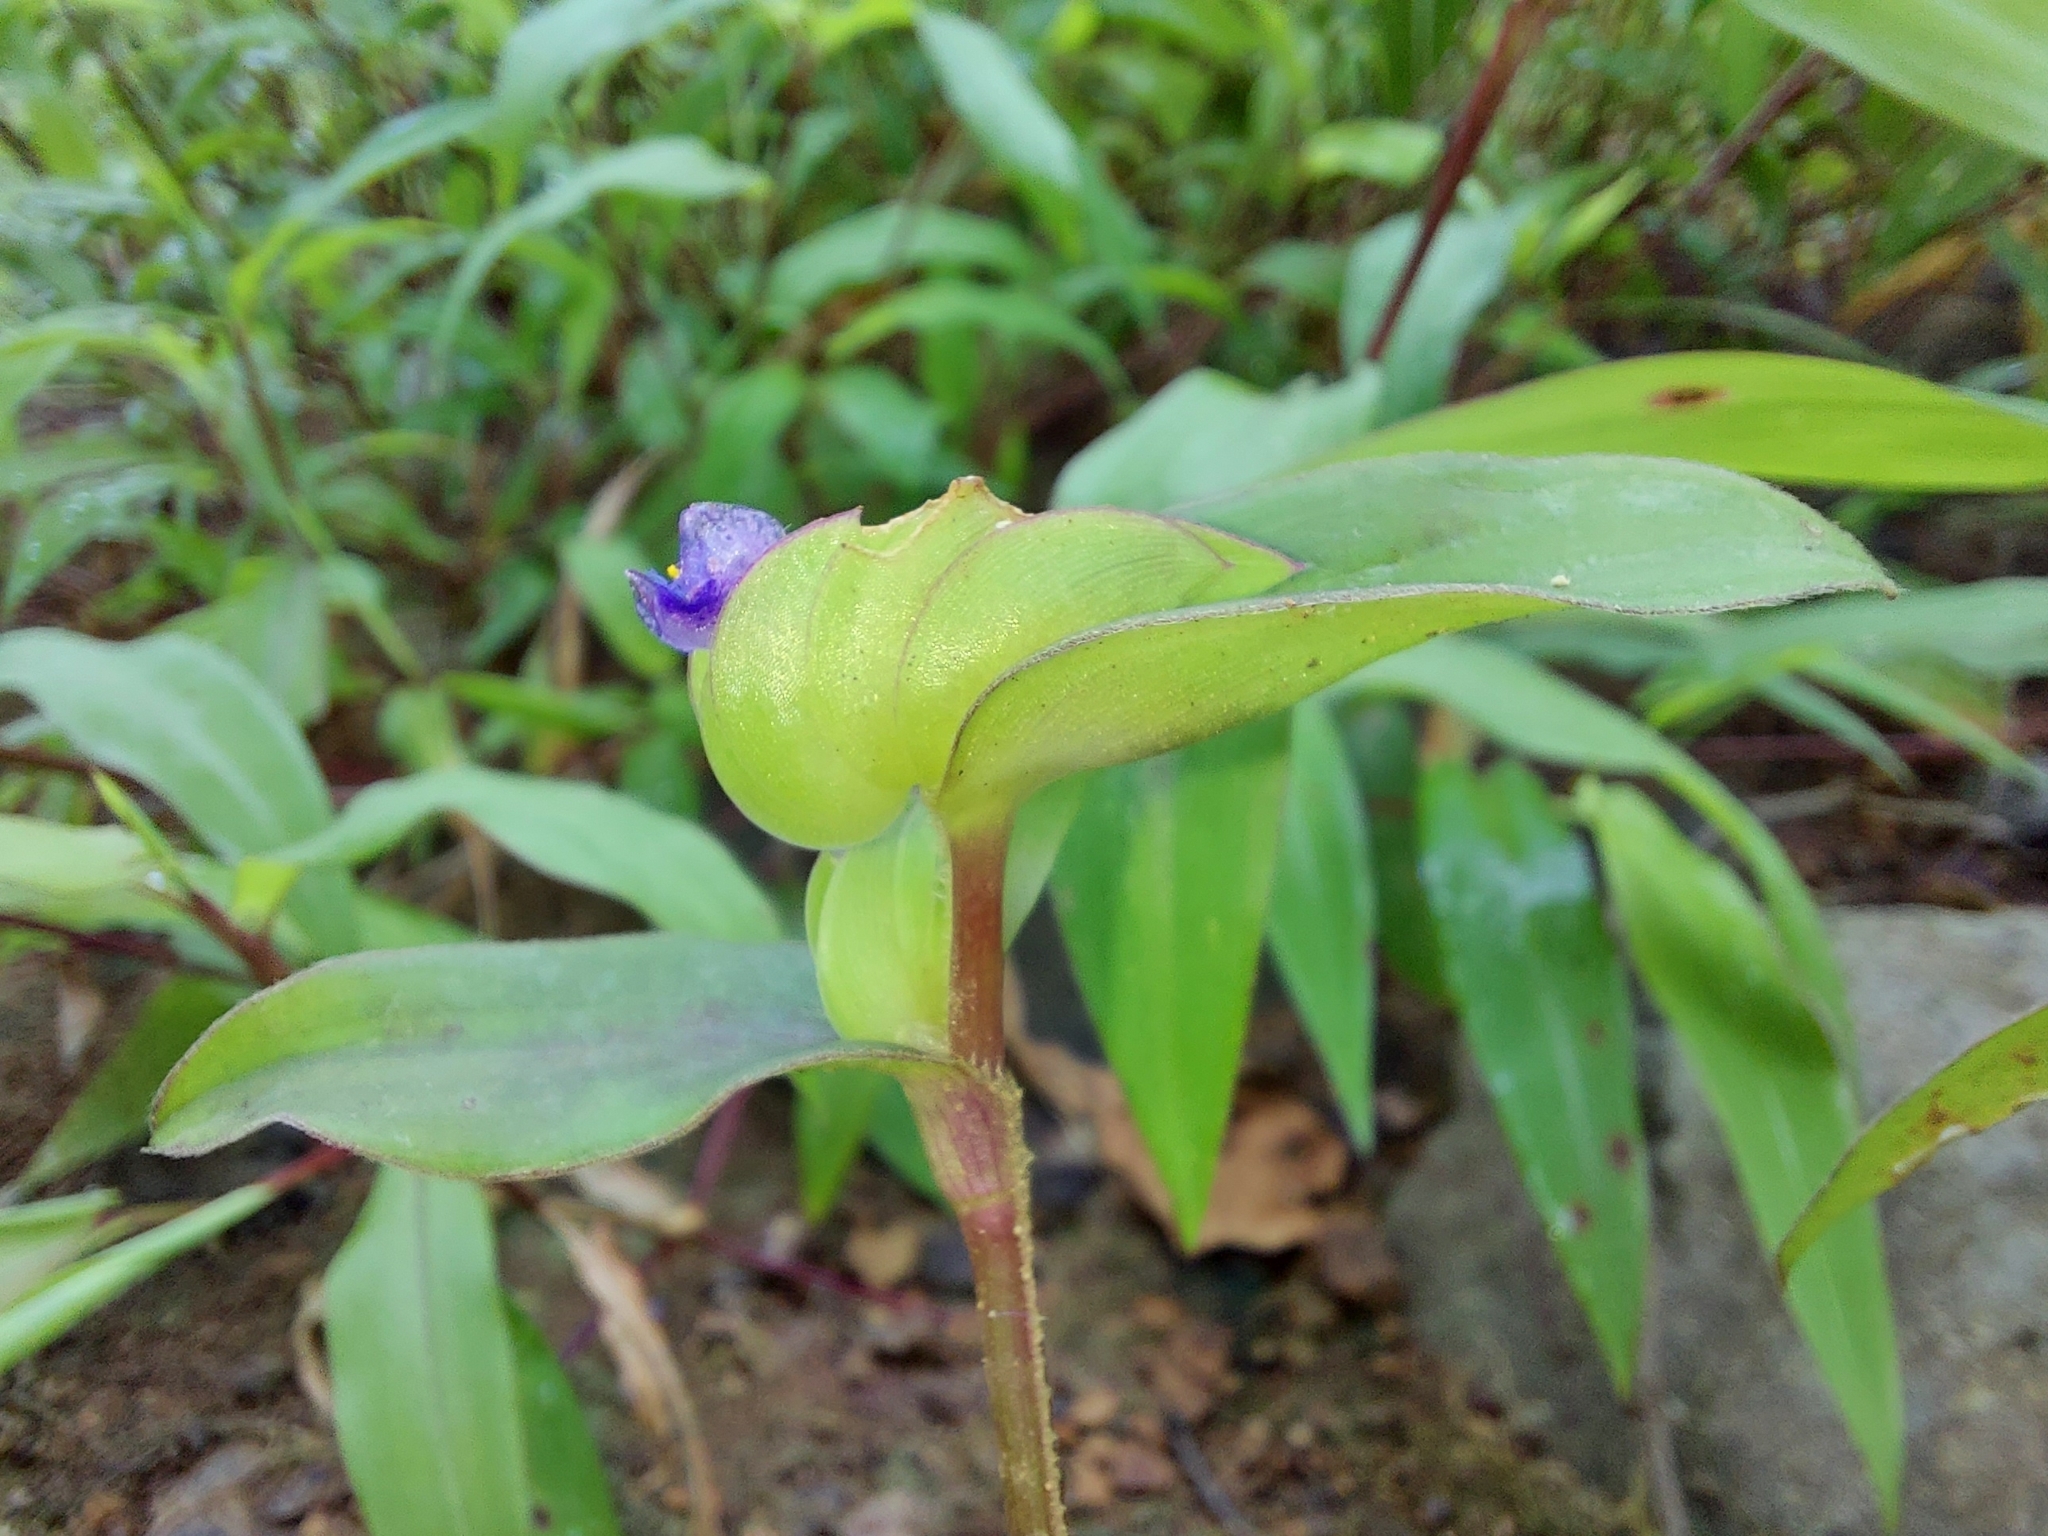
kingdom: Plantae
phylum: Tracheophyta
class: Liliopsida
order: Commelinales
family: Commelinaceae
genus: Cyanotis
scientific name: Cyanotis cristata
